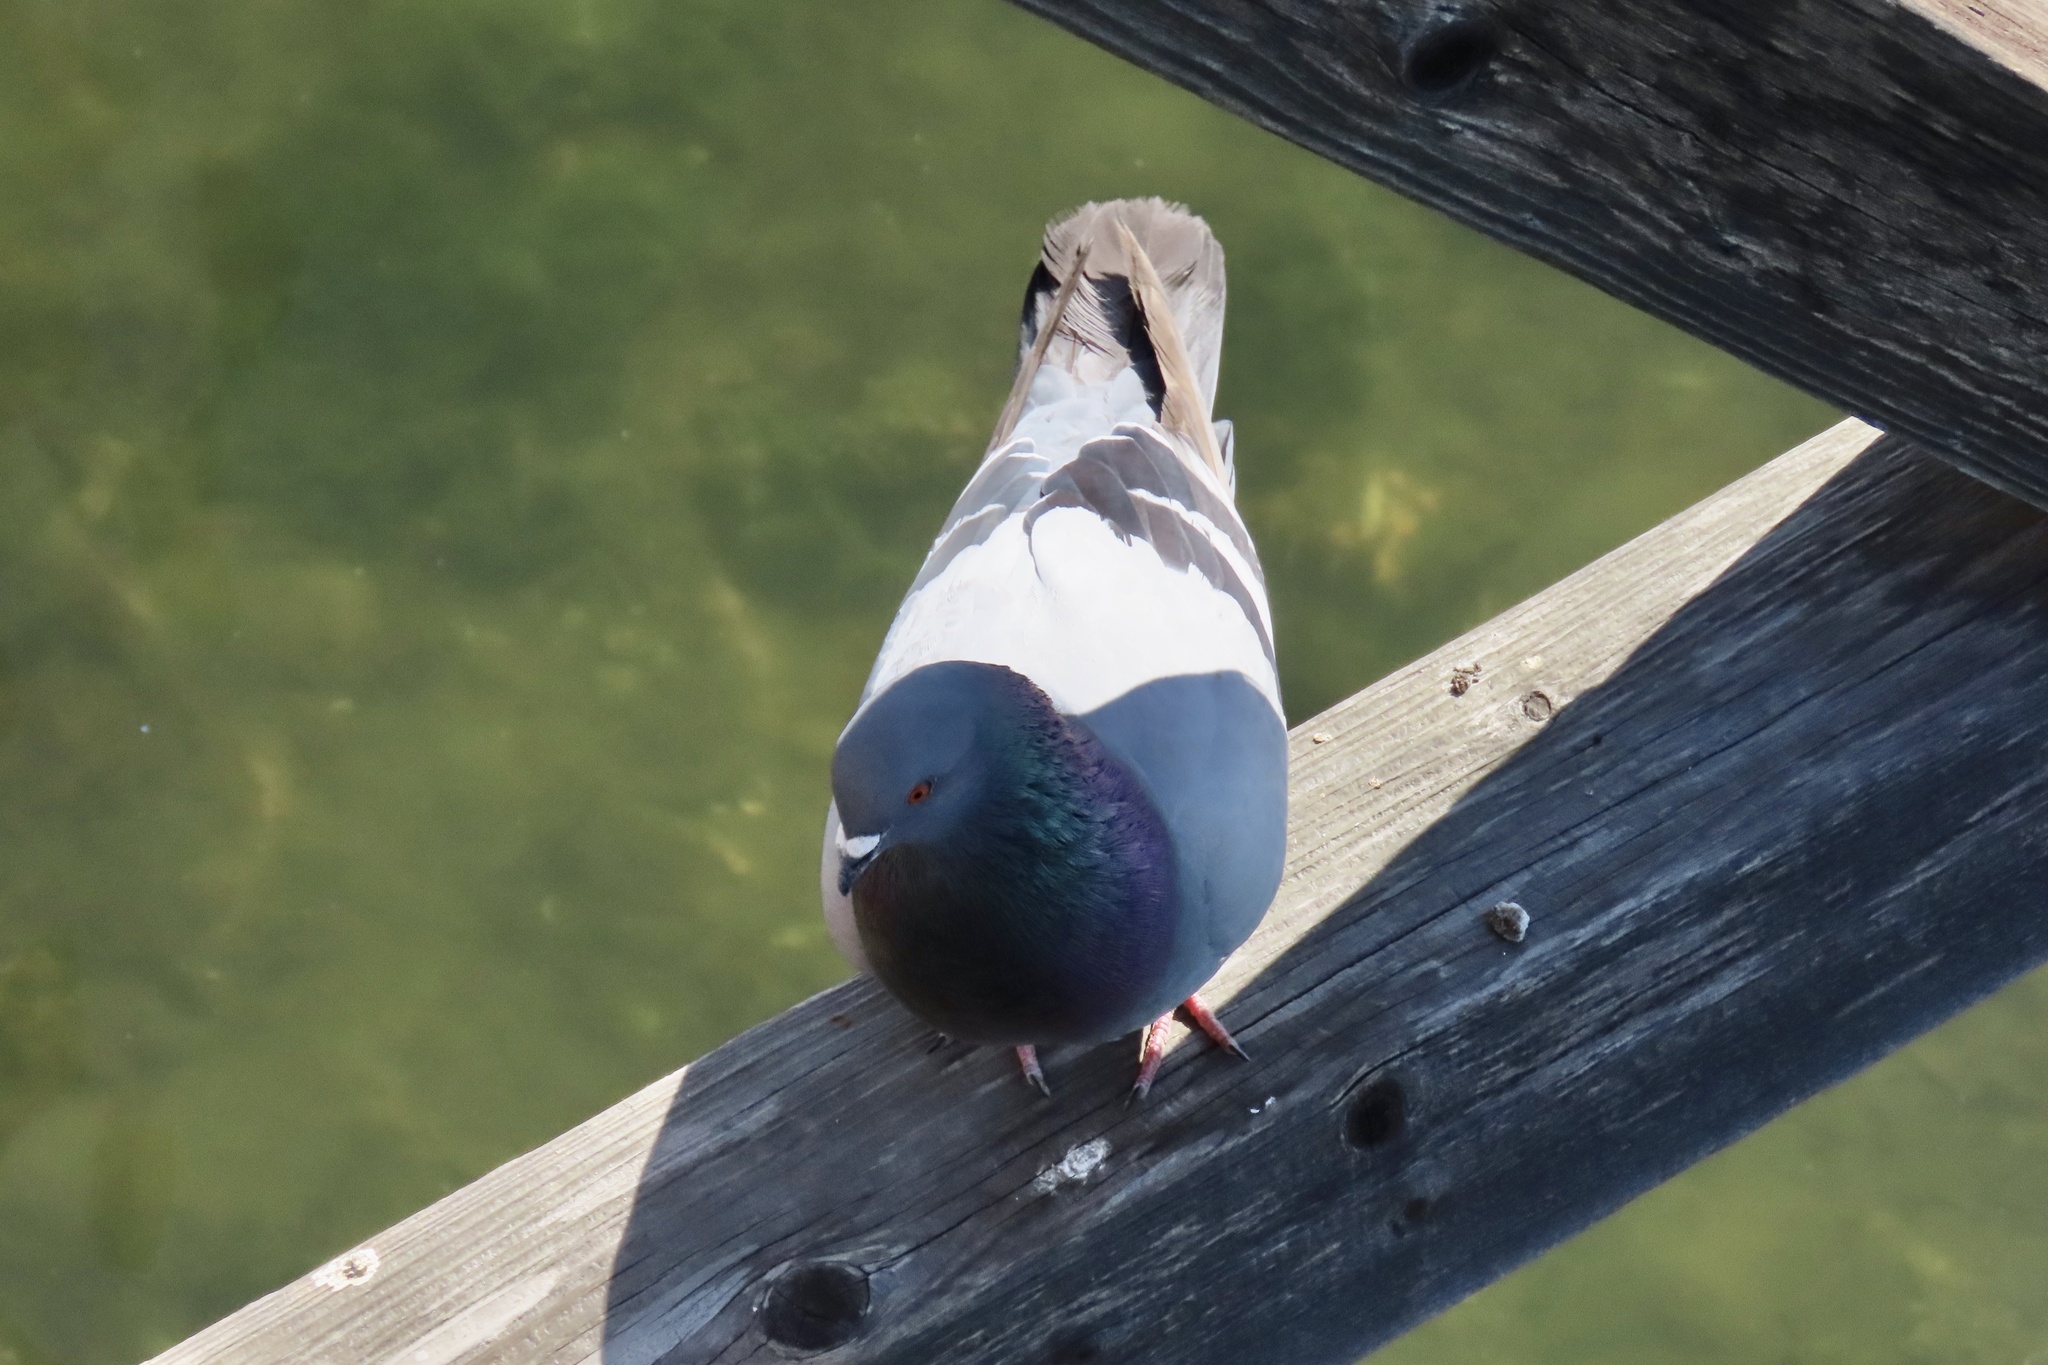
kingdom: Animalia
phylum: Chordata
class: Aves
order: Columbiformes
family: Columbidae
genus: Columba
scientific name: Columba livia
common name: Rock pigeon
